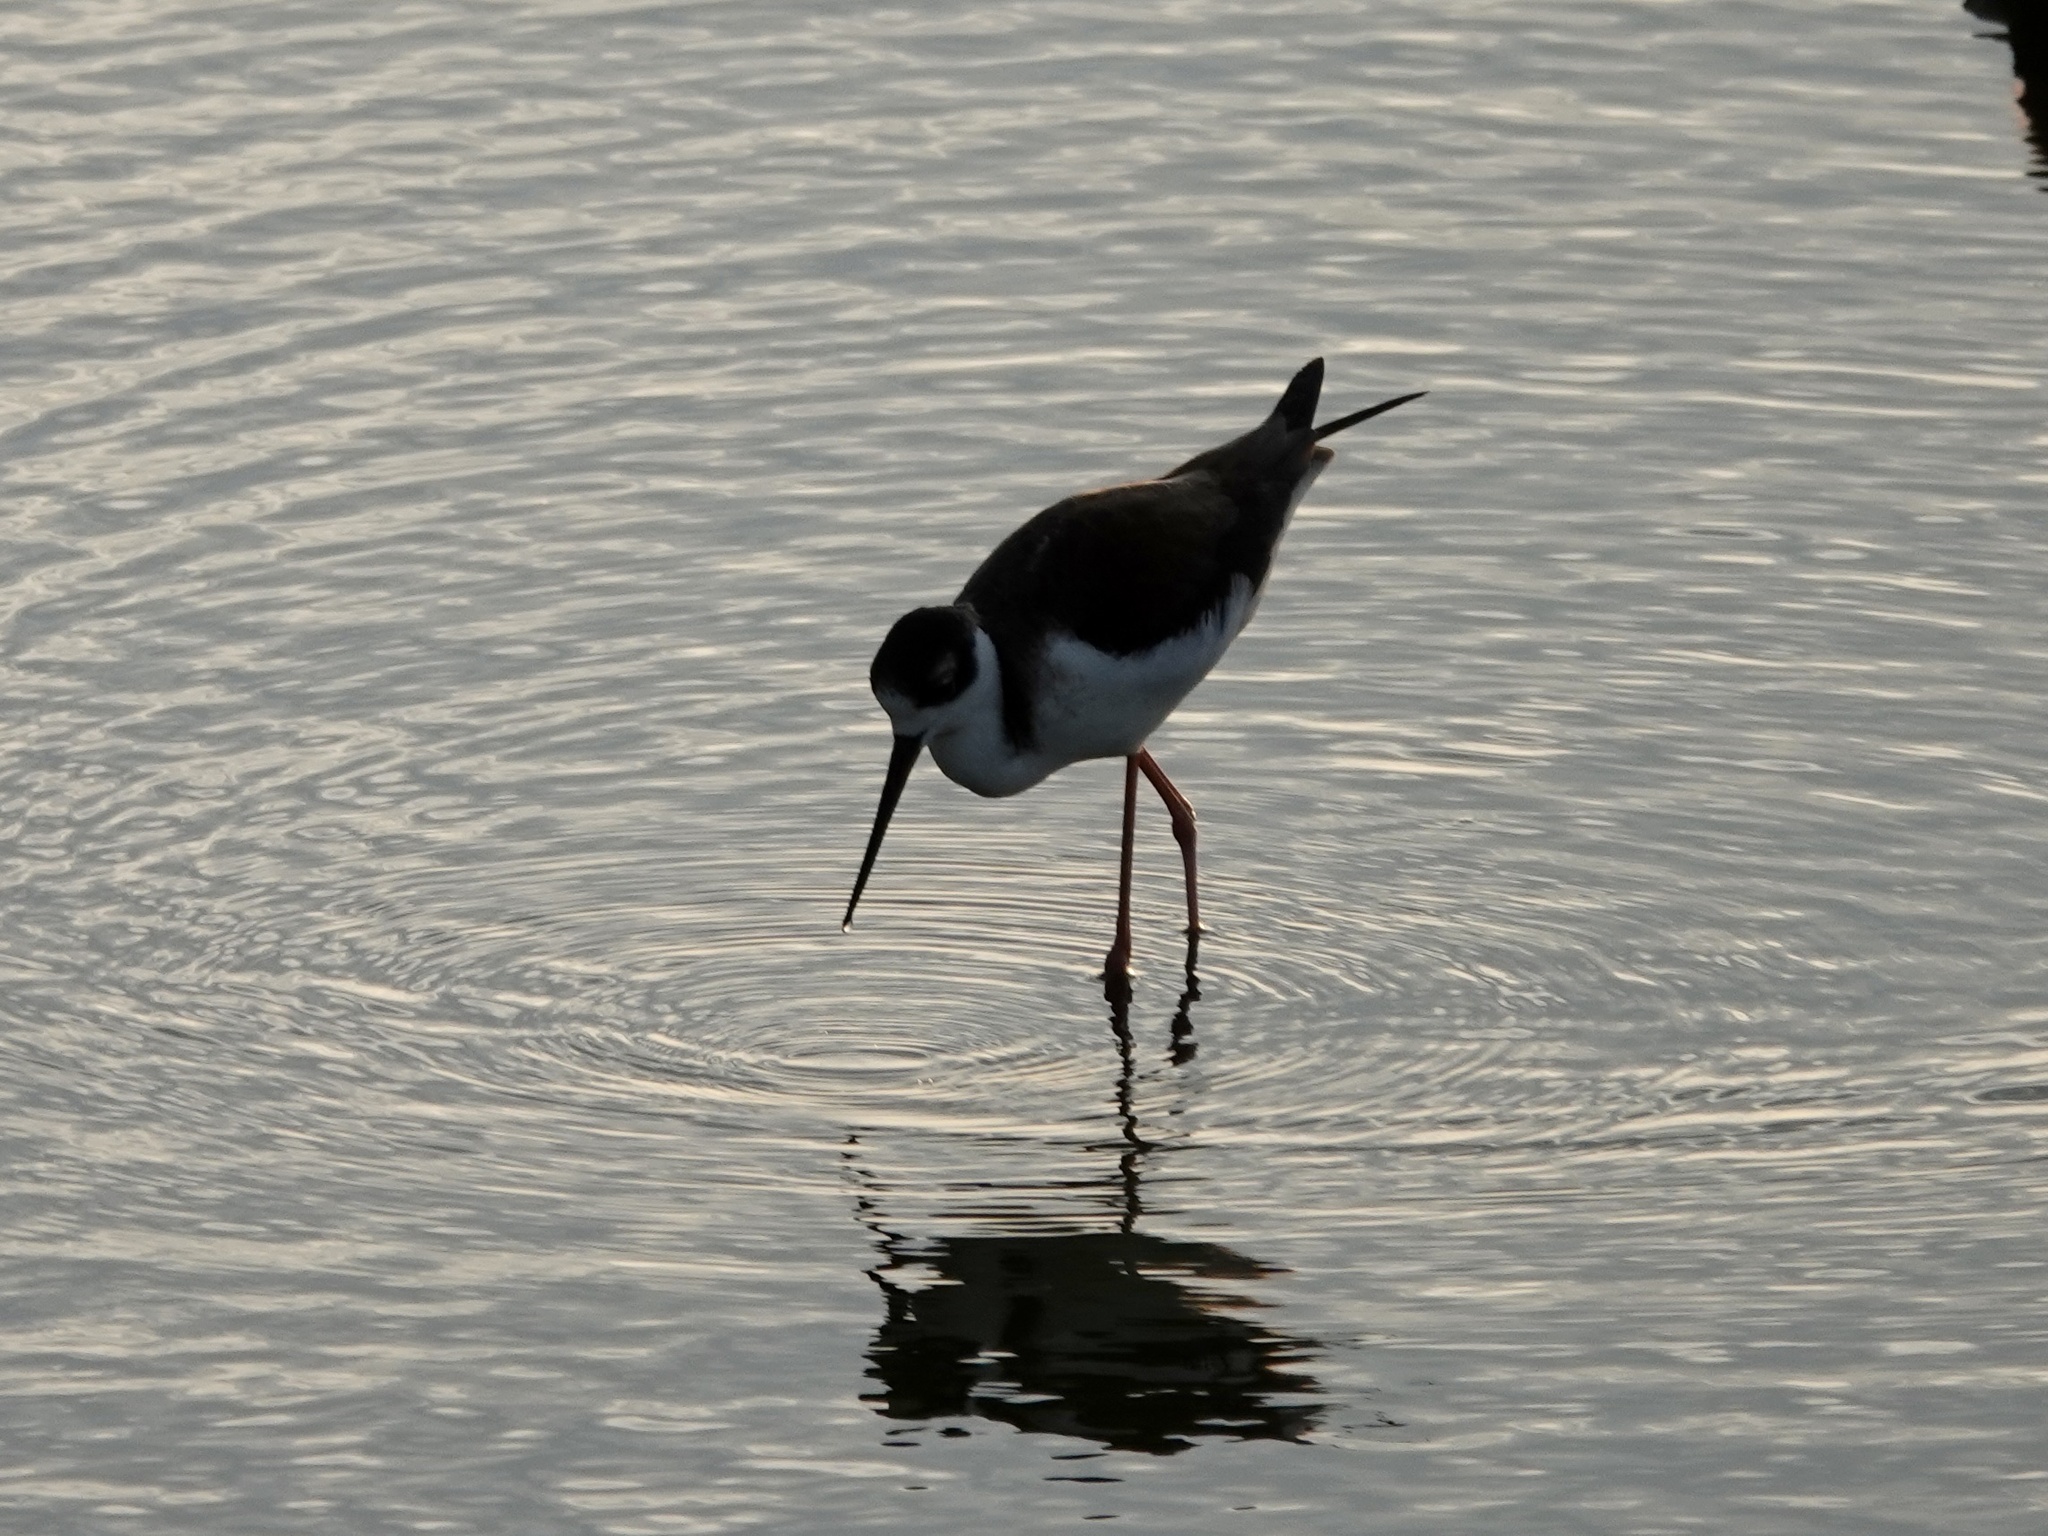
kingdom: Animalia
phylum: Chordata
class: Aves
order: Charadriiformes
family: Recurvirostridae
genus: Himantopus
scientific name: Himantopus mexicanus
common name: Black-necked stilt
